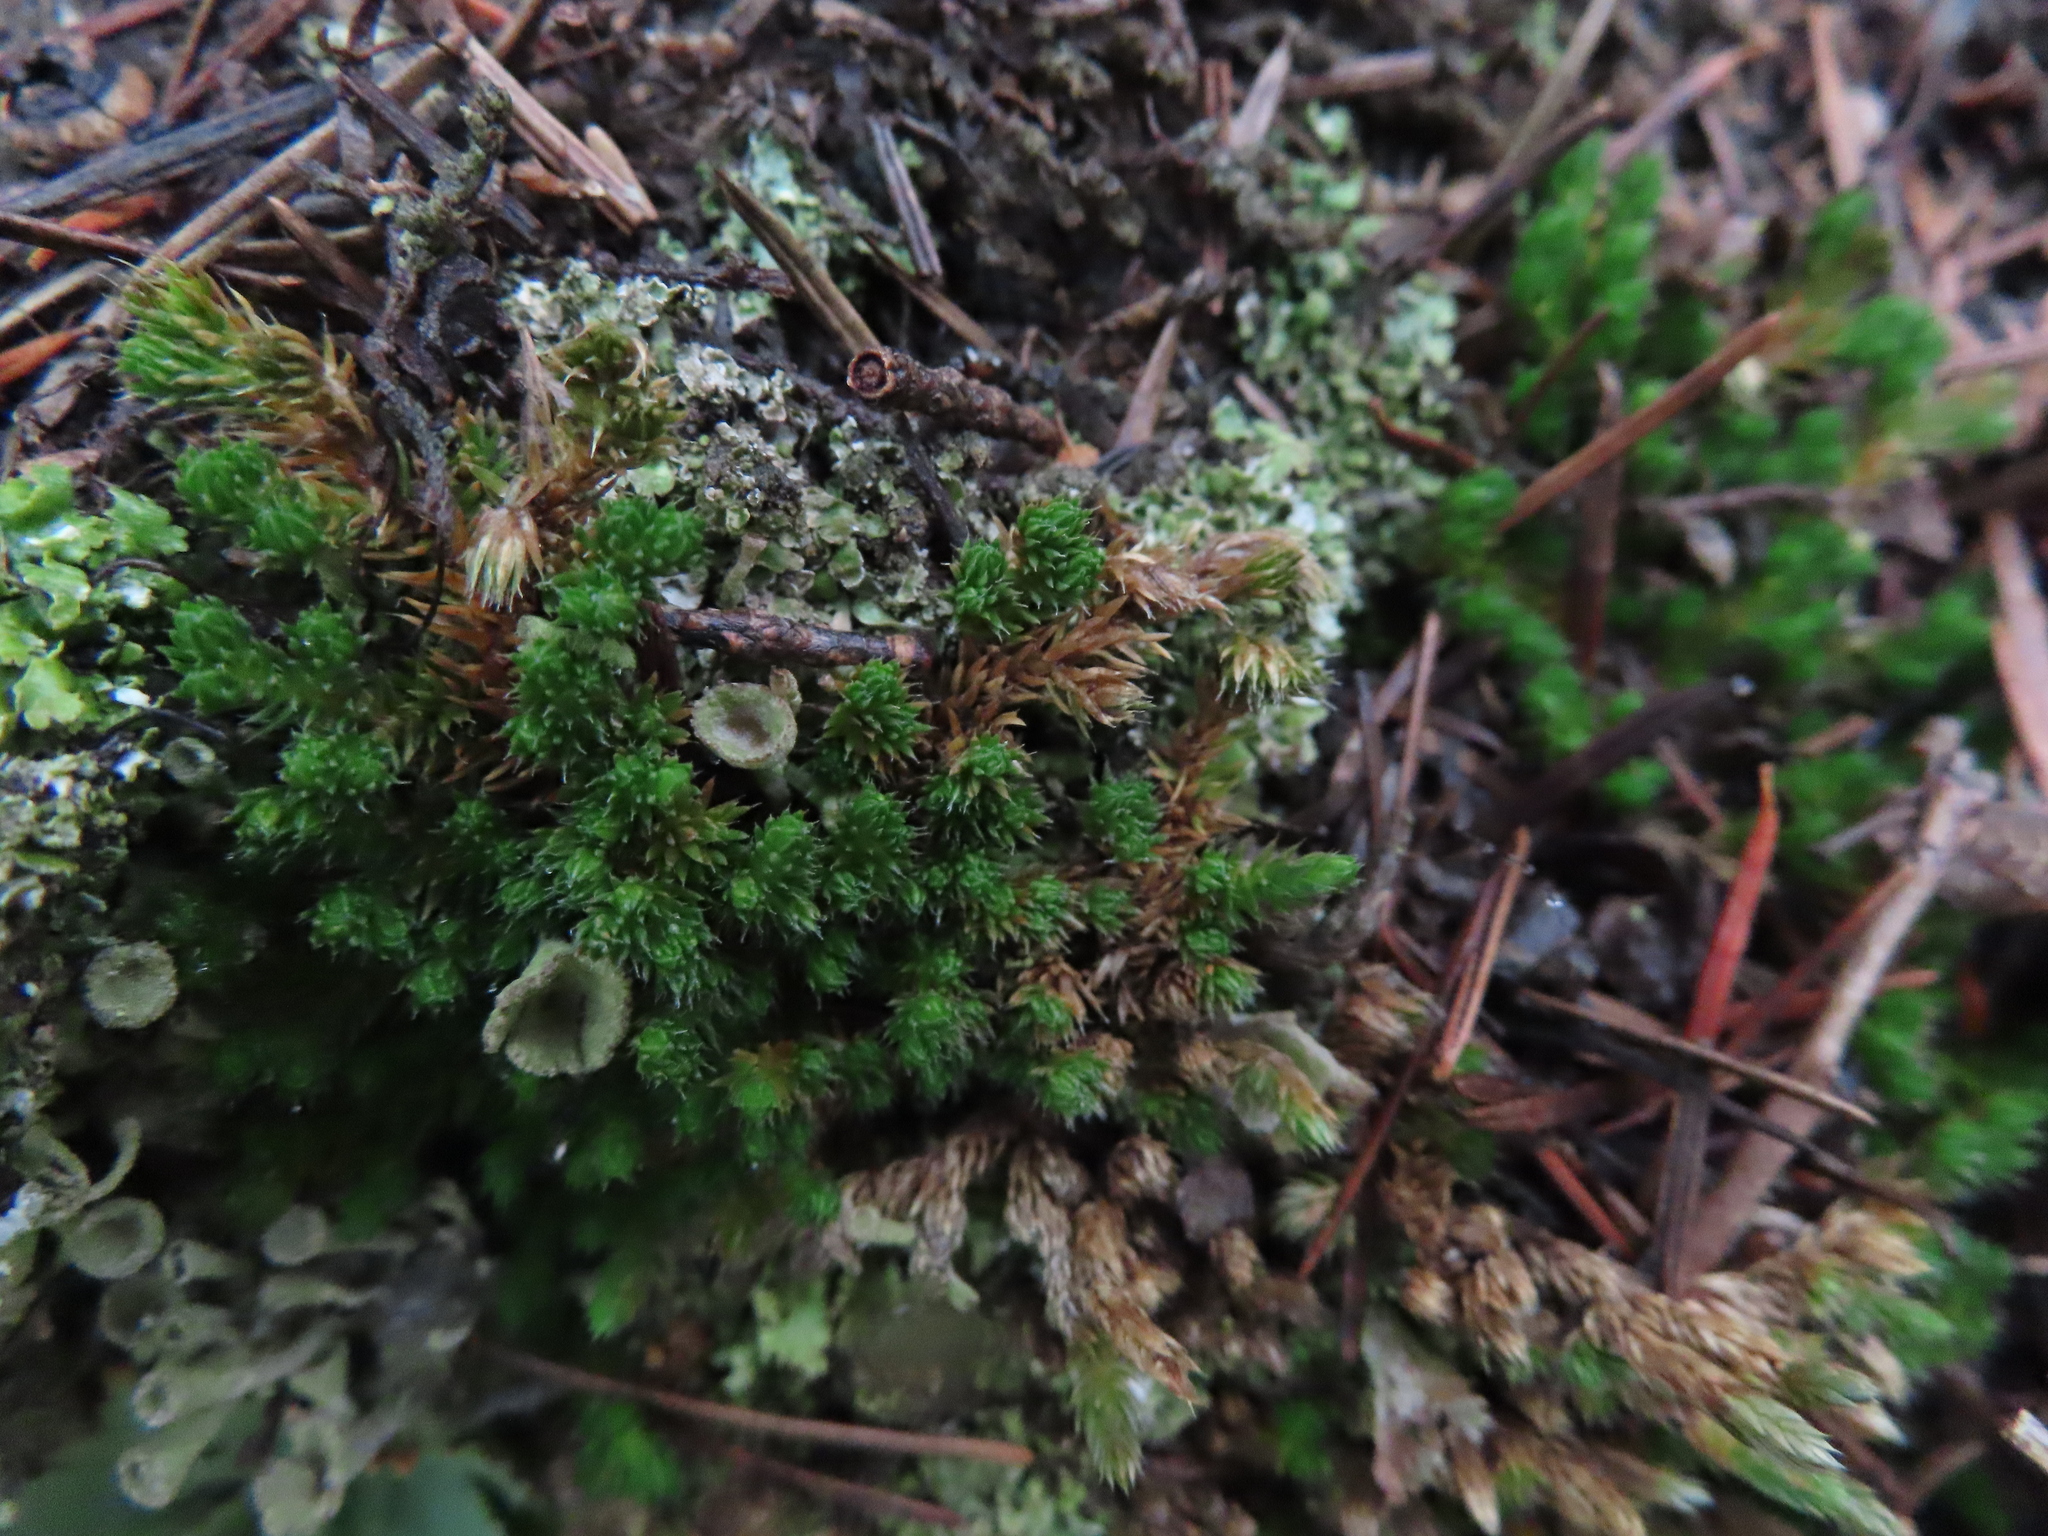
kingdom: Plantae
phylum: Tracheophyta
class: Lycopodiopsida
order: Selaginellales
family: Selaginellaceae
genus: Selaginella
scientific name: Selaginella densa
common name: Mountain spike-moss
